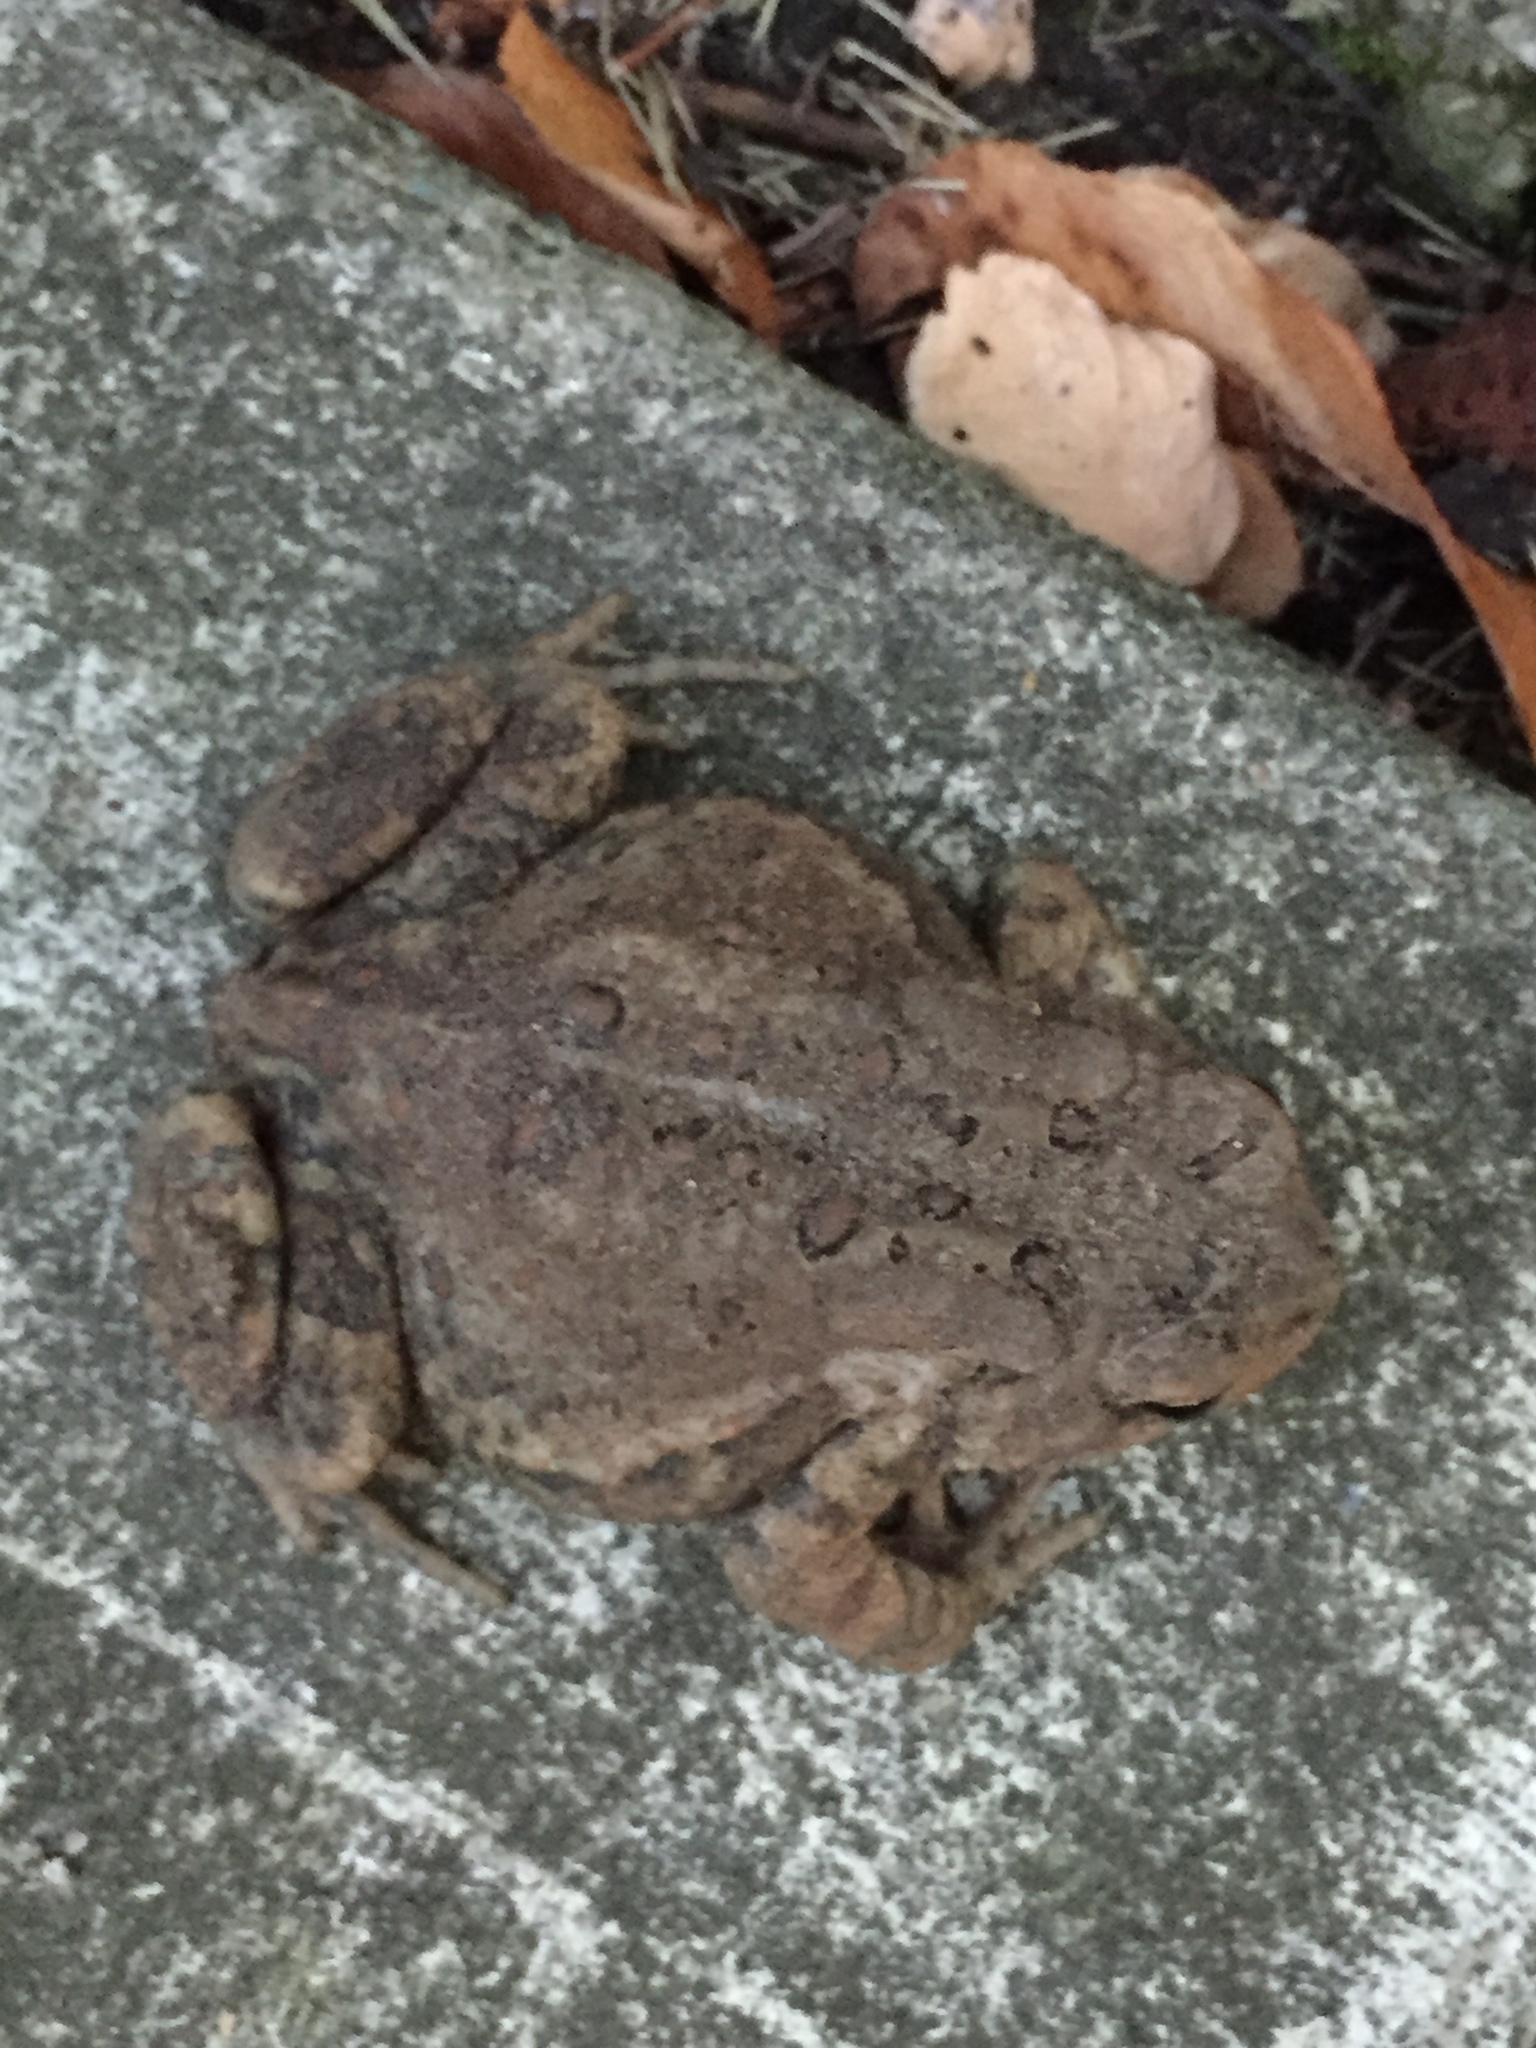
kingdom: Animalia
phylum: Chordata
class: Amphibia
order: Anura
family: Bufonidae
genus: Anaxyrus
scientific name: Anaxyrus americanus
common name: American toad
